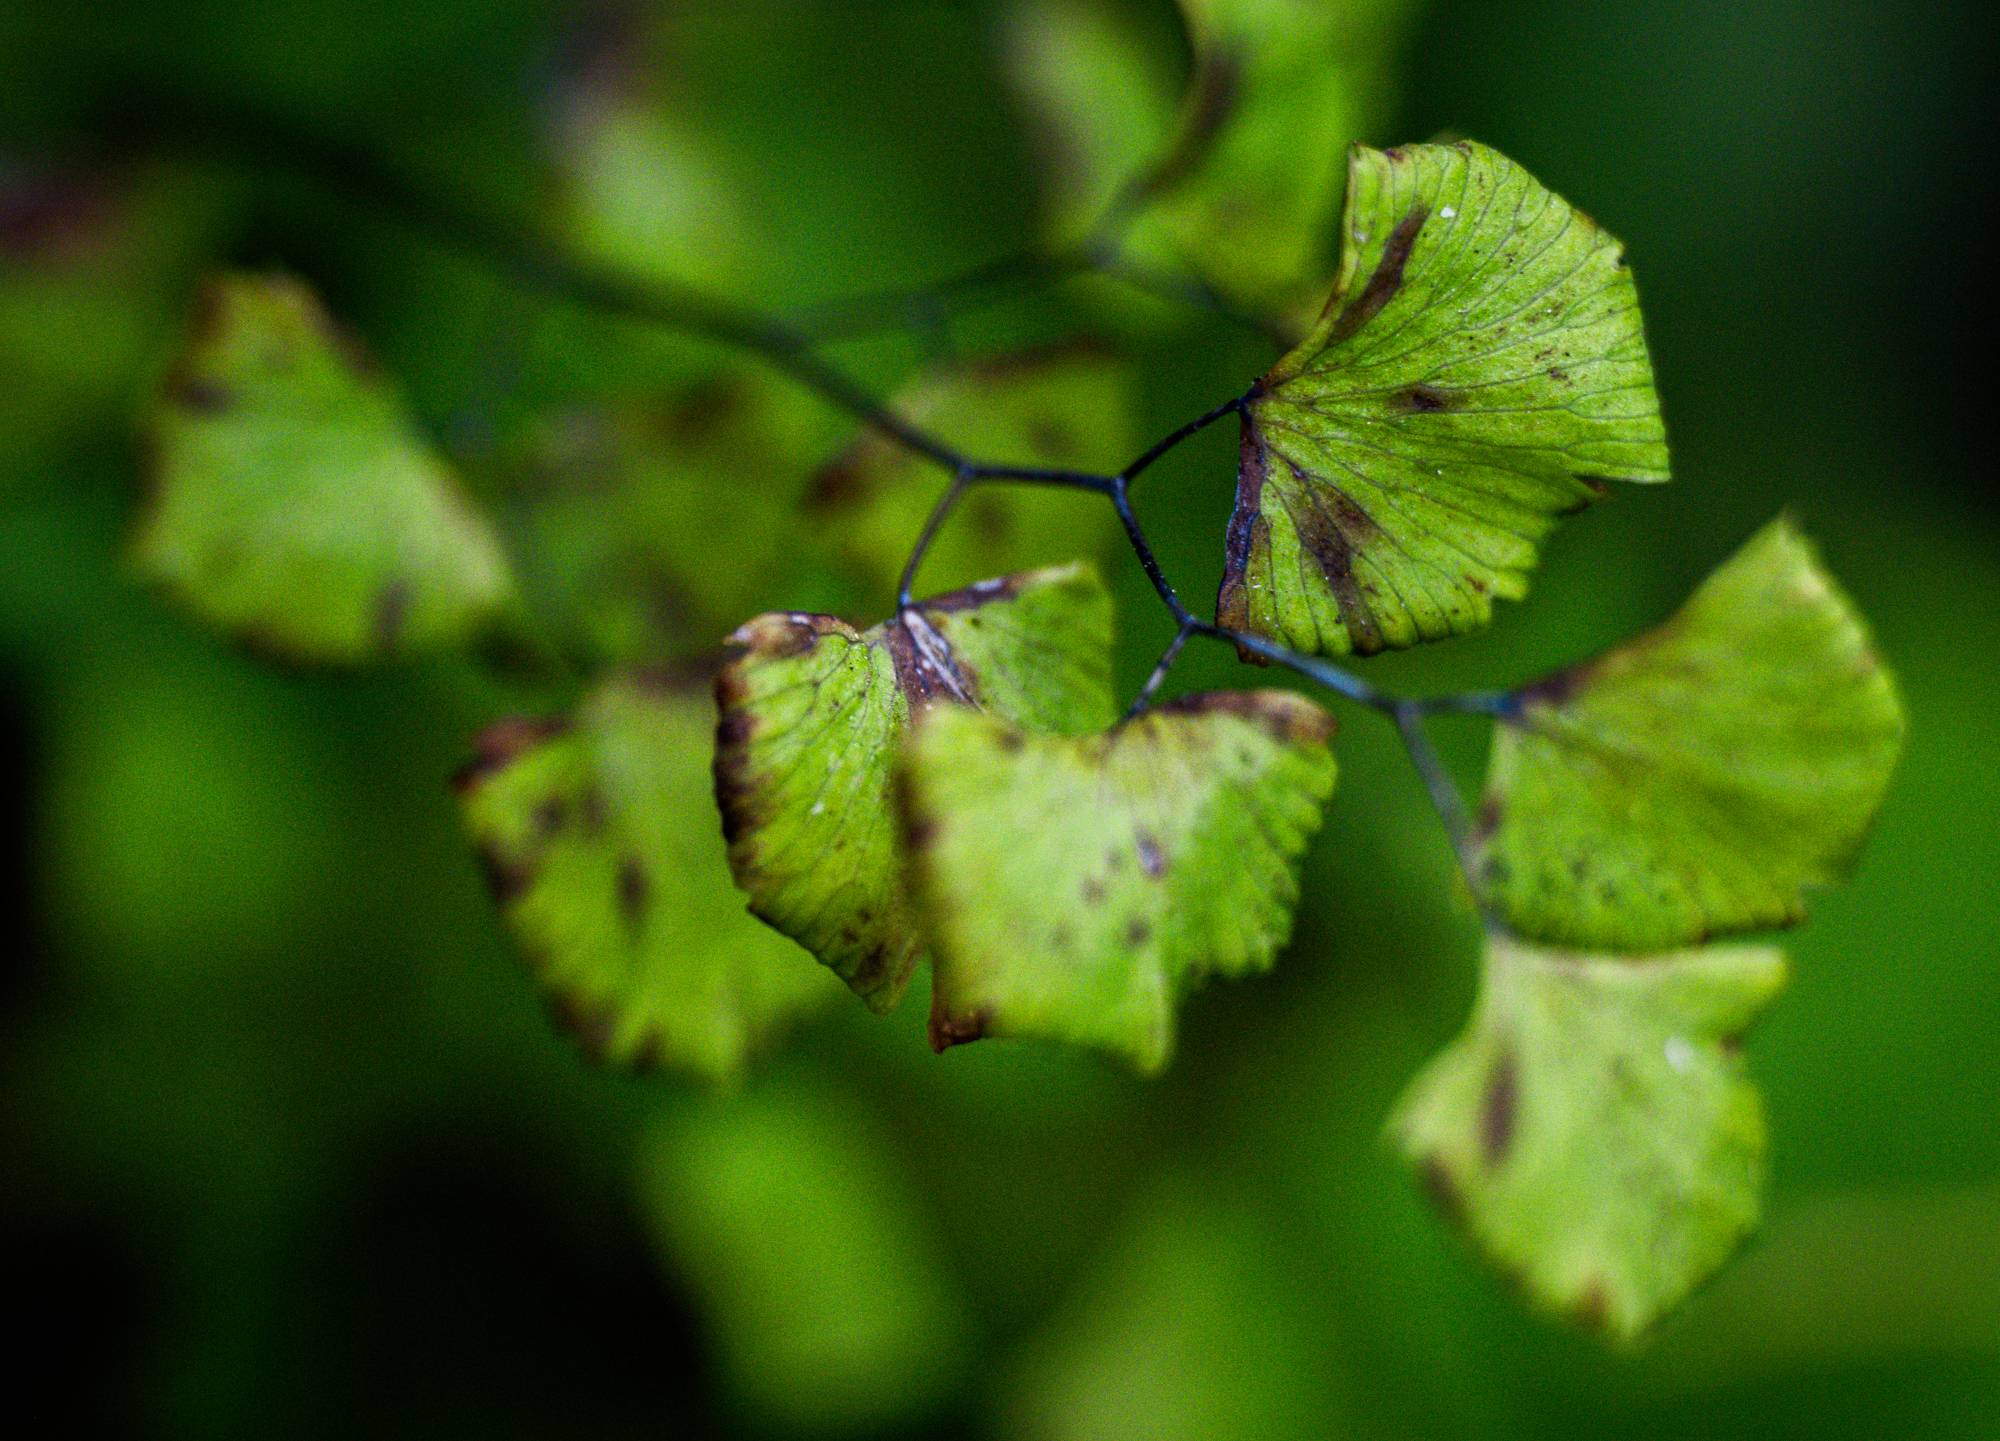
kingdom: Plantae
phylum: Tracheophyta
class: Polypodiopsida
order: Polypodiales
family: Pteridaceae
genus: Adiantum
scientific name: Adiantum jordanii
